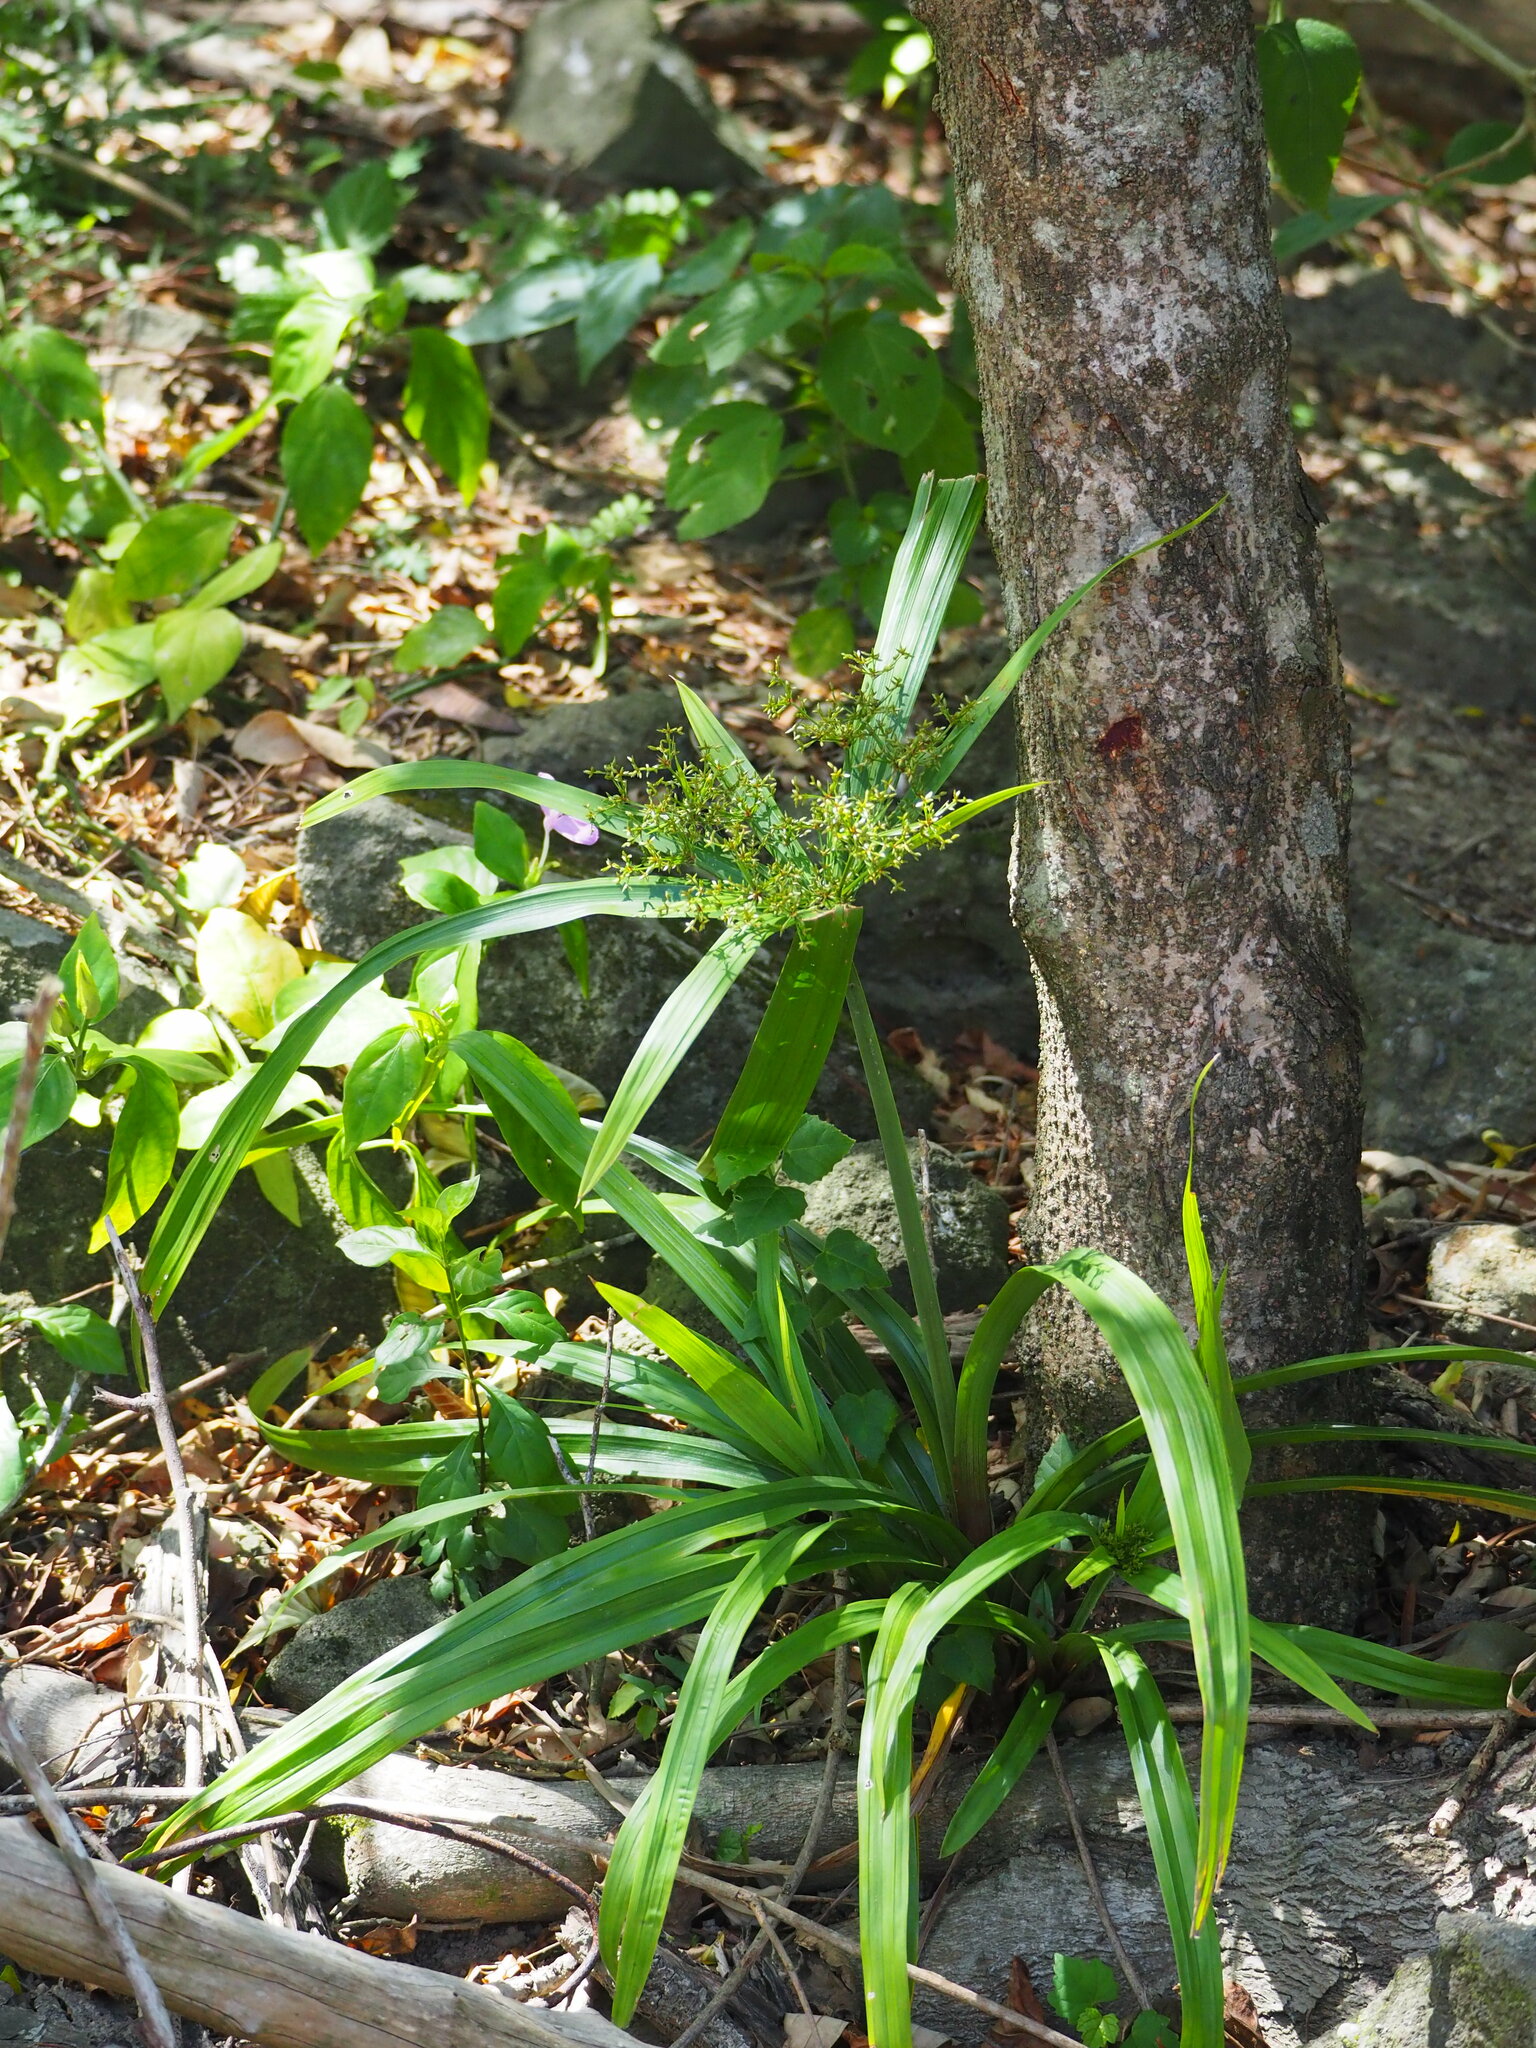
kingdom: Plantae
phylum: Tracheophyta
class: Liliopsida
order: Poales
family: Cyperaceae
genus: Cyperus
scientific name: Cyperus diffusus
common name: Dwarf umbrella grass
